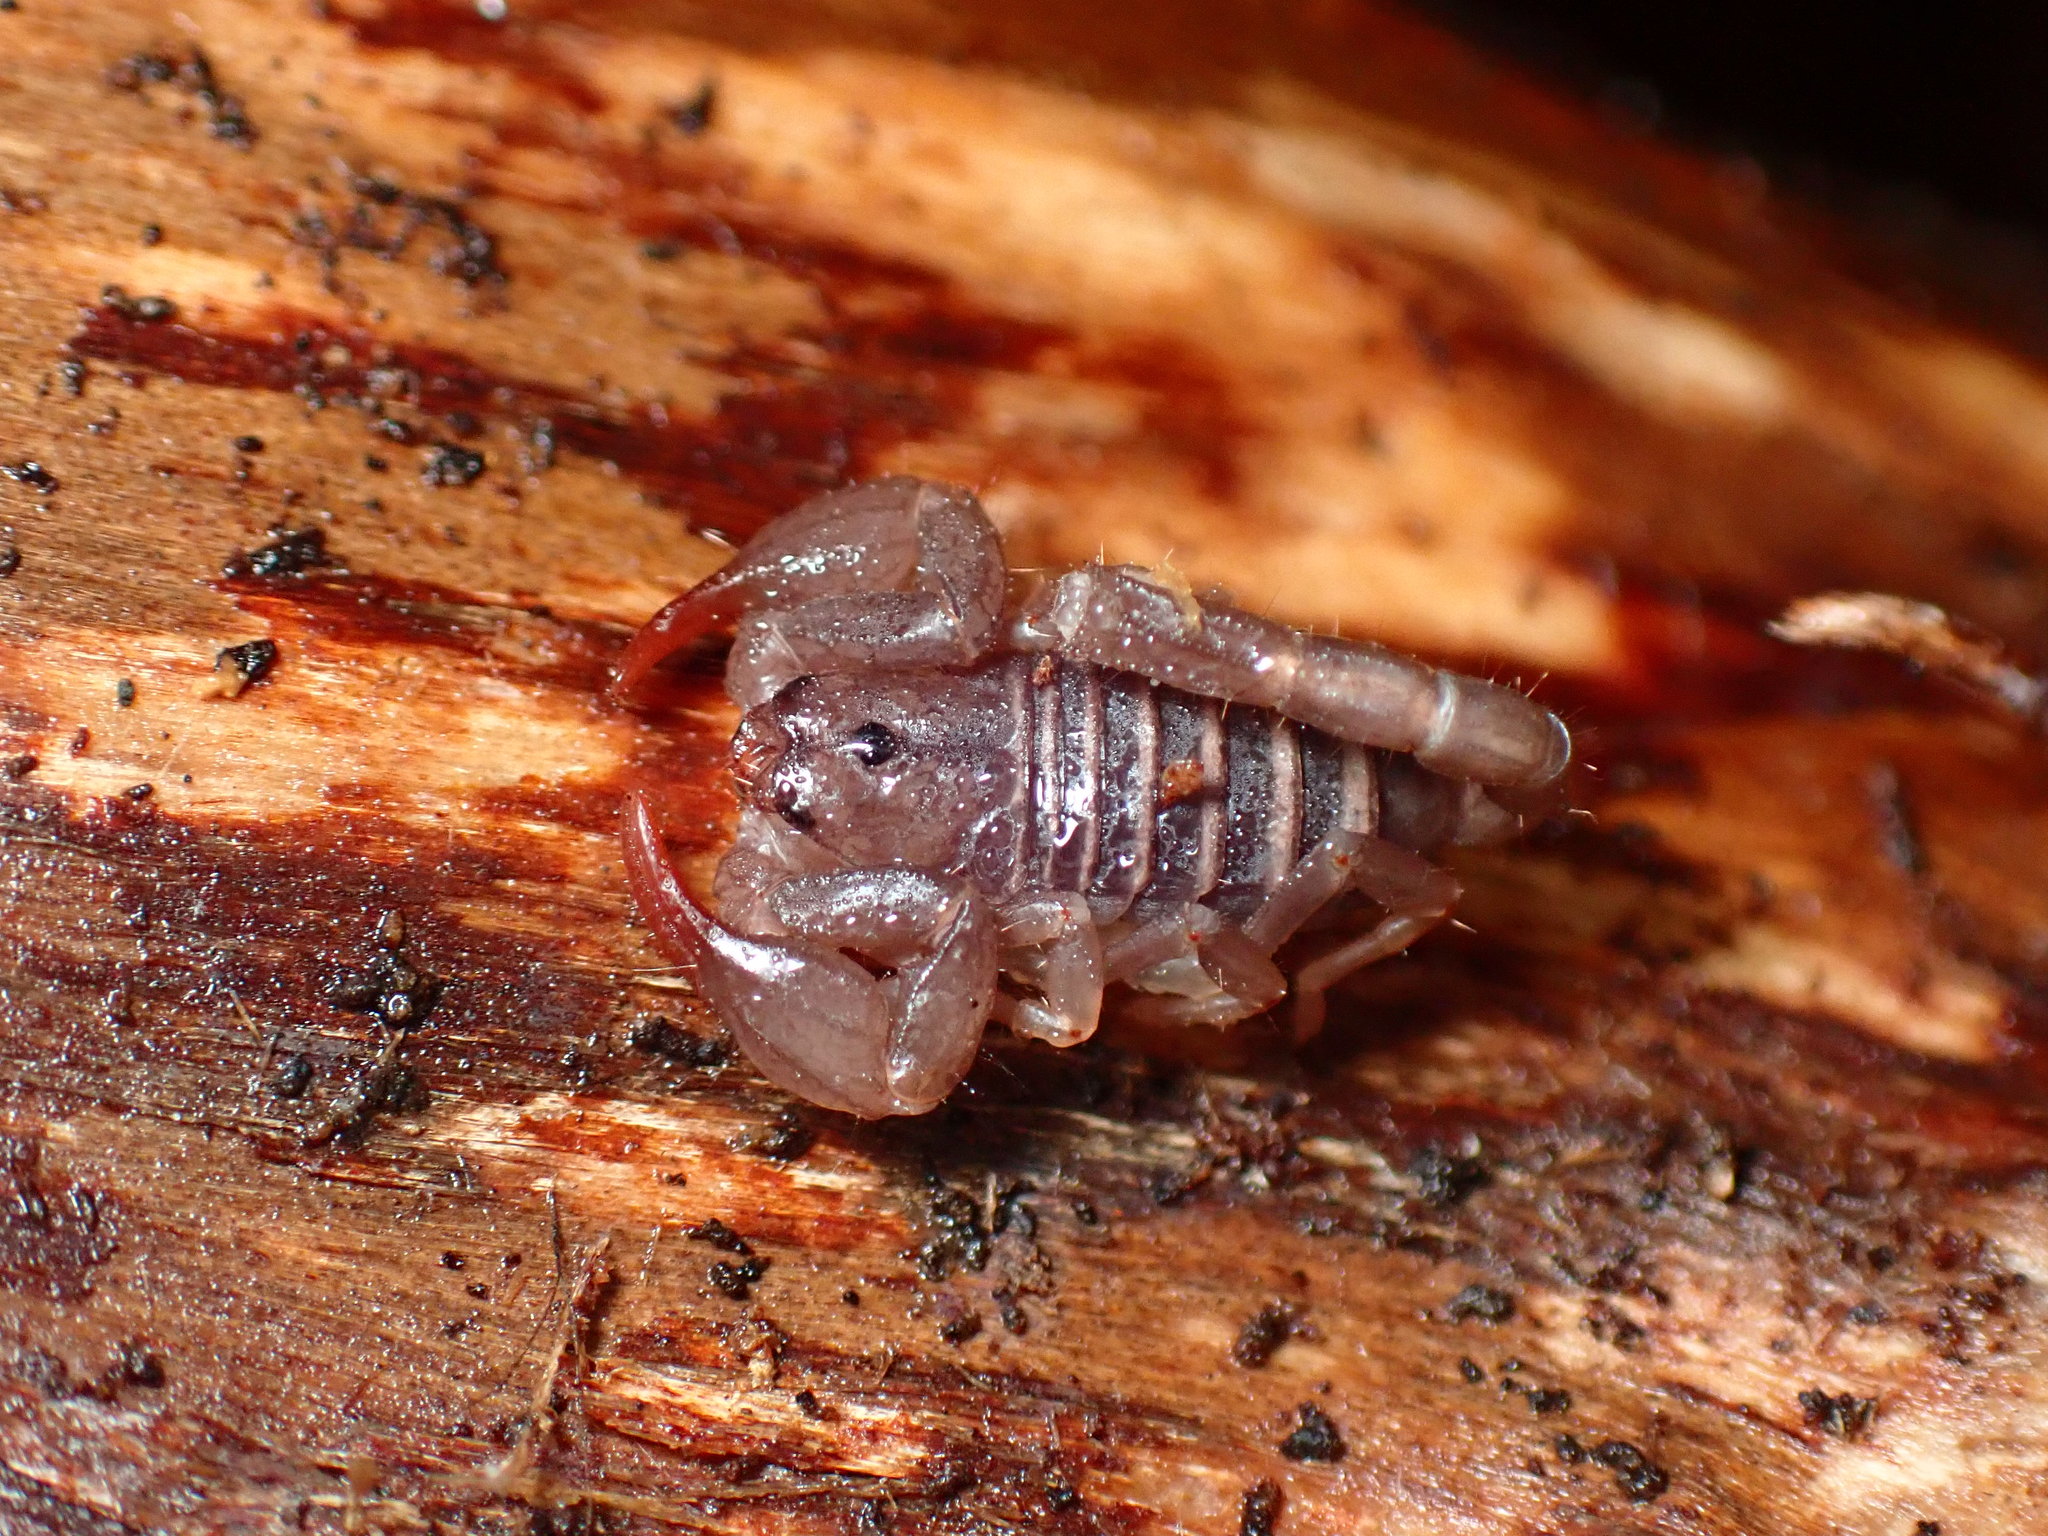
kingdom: Animalia
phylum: Arthropoda
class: Arachnida
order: Scorpiones
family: Chactidae
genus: Uroctonus
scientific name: Uroctonus mordax
